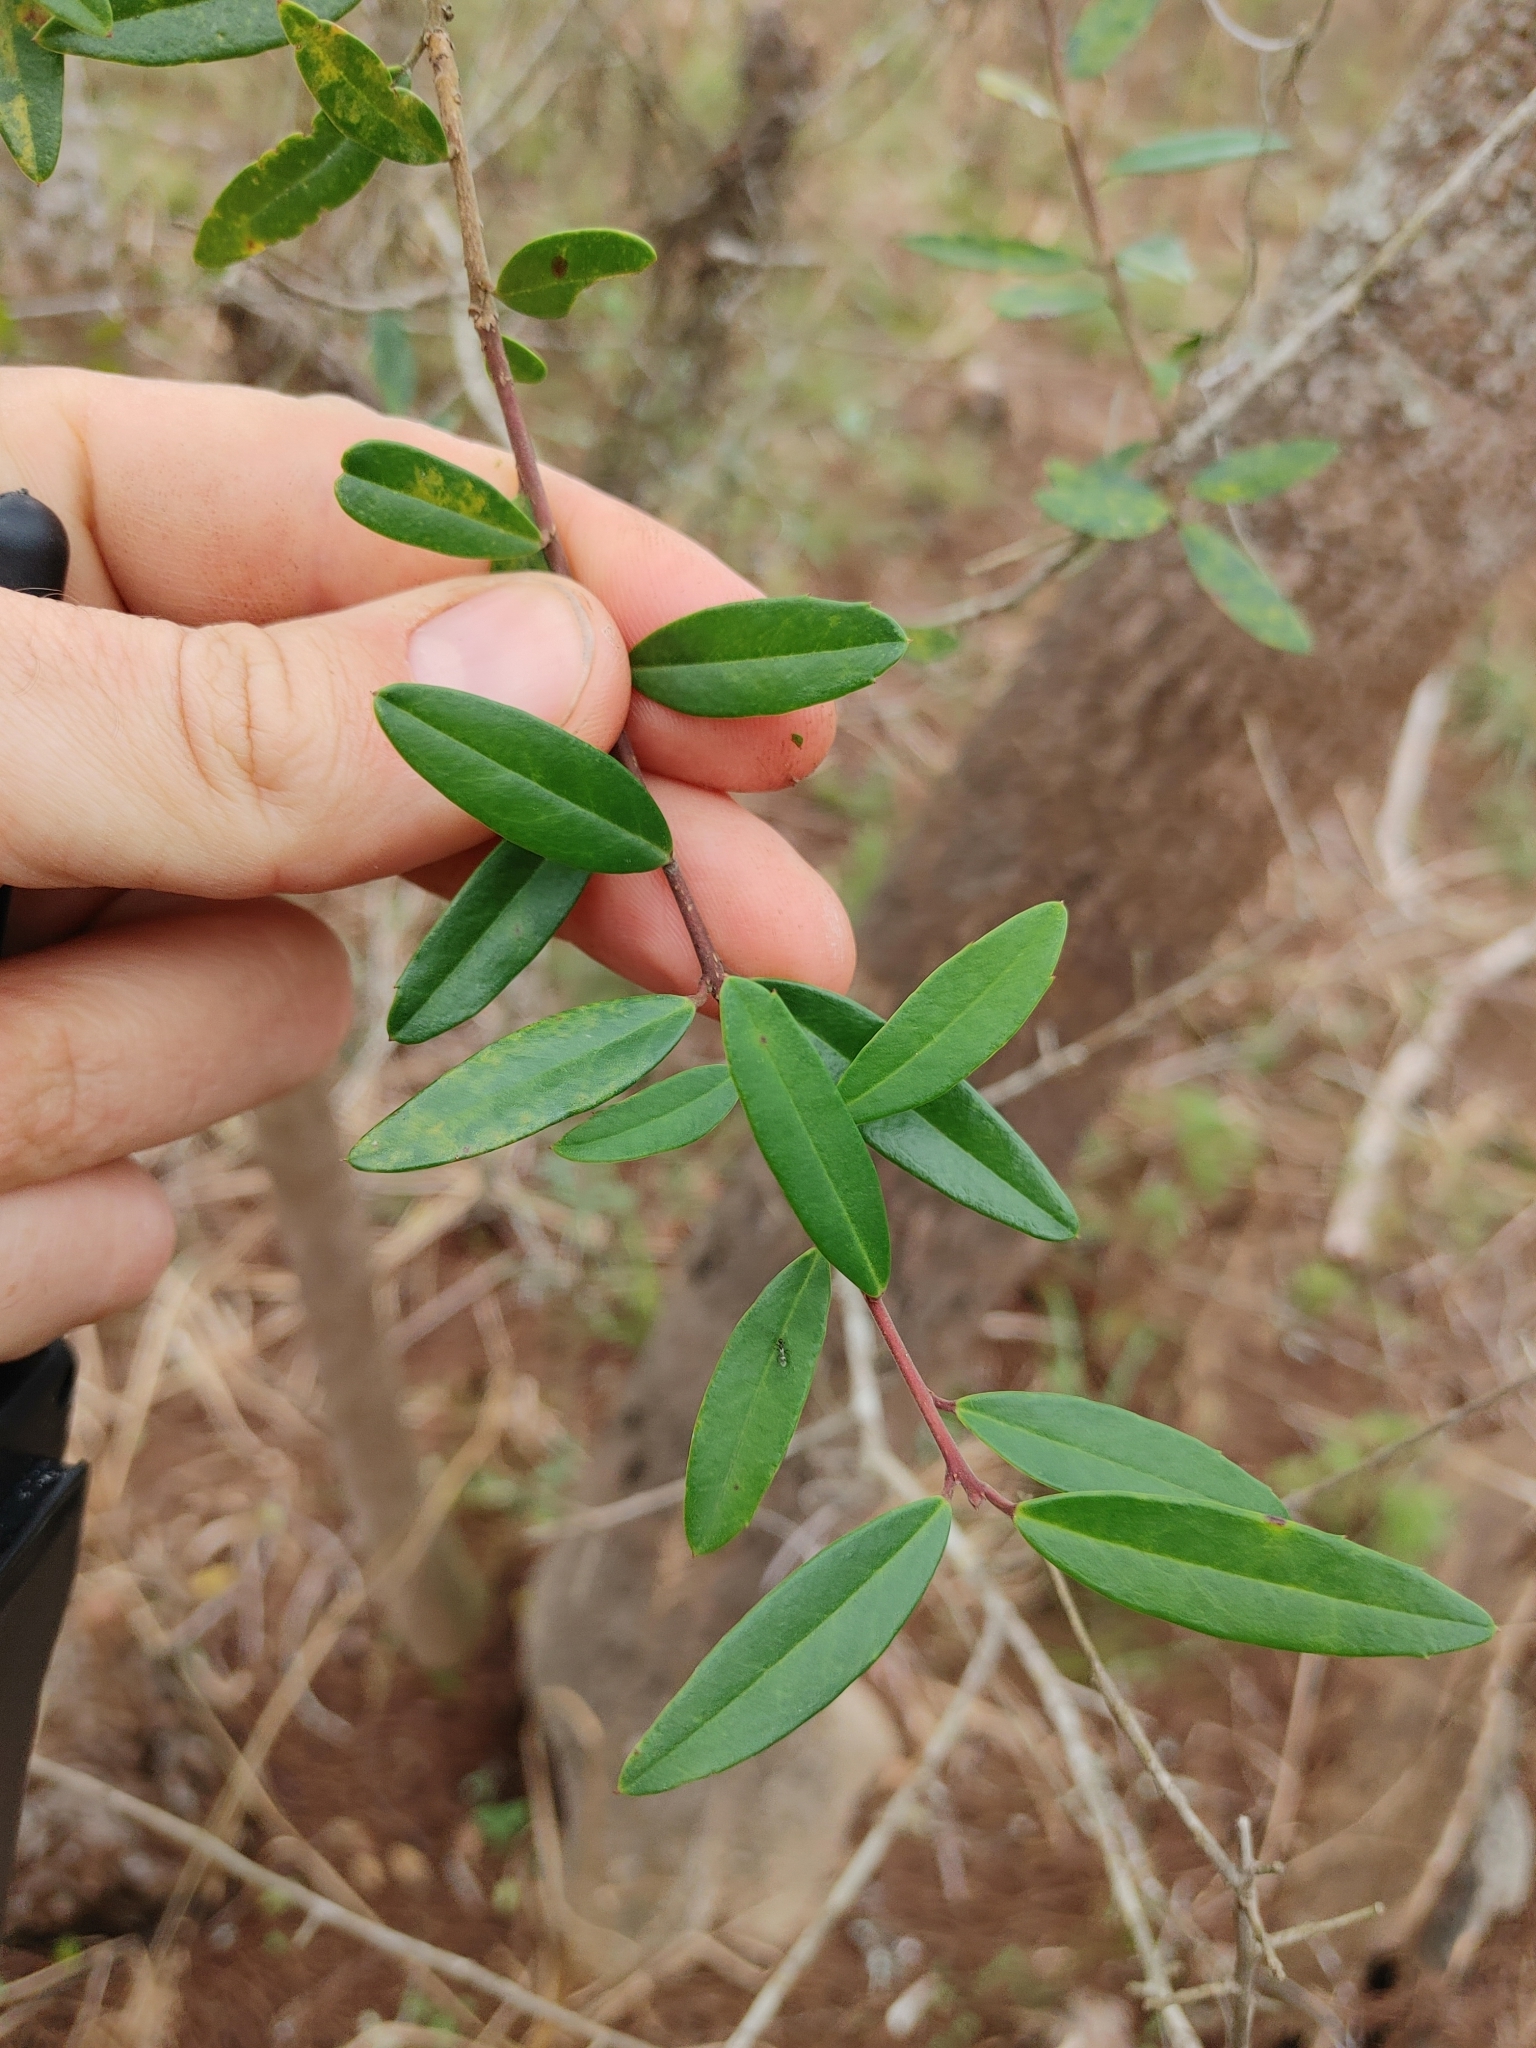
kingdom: Plantae
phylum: Tracheophyta
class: Magnoliopsida
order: Aquifoliales
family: Aquifoliaceae
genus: Ilex
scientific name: Ilex myrtifolia
